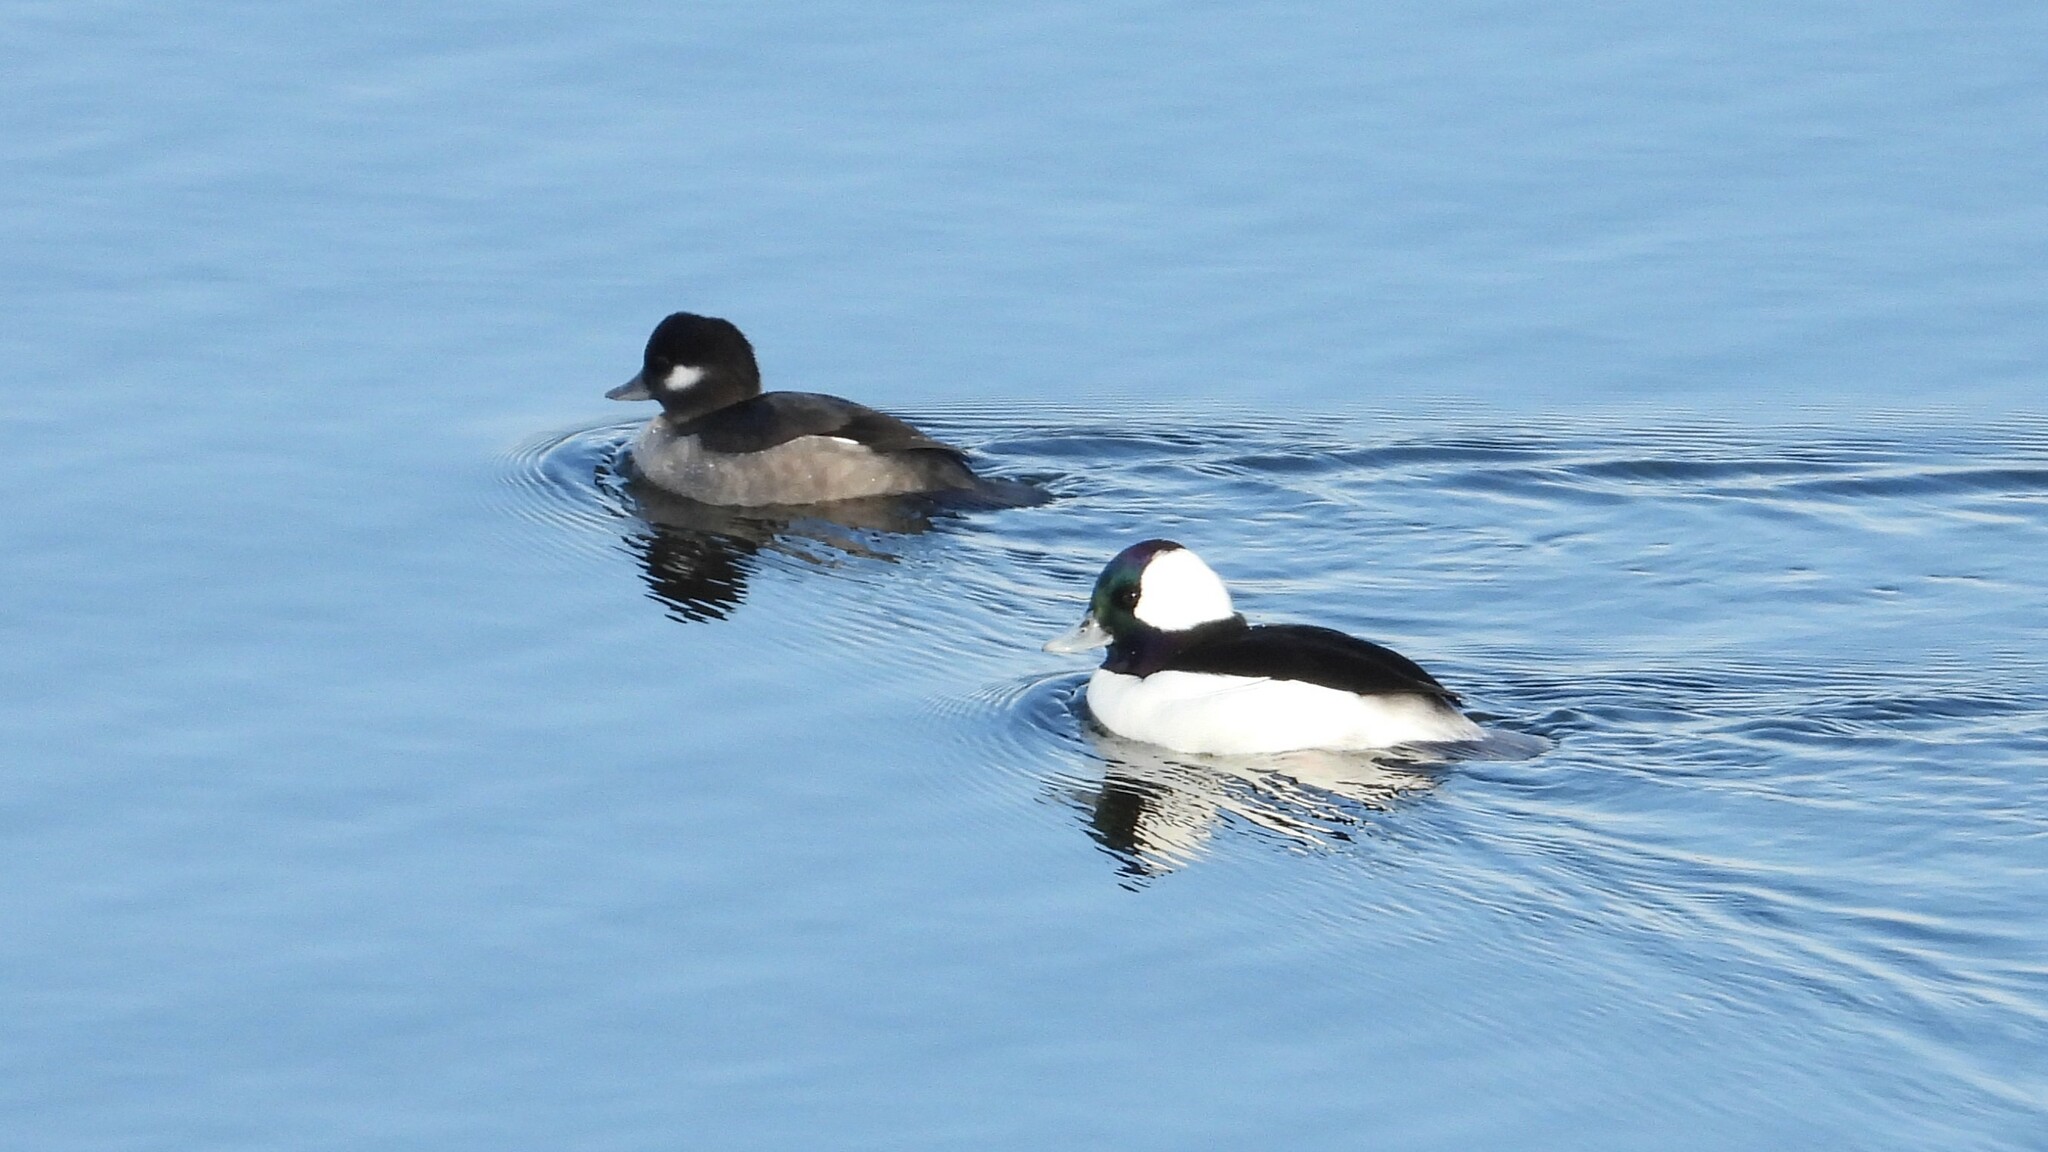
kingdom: Animalia
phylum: Chordata
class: Aves
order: Anseriformes
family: Anatidae
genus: Bucephala
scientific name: Bucephala albeola
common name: Bufflehead
